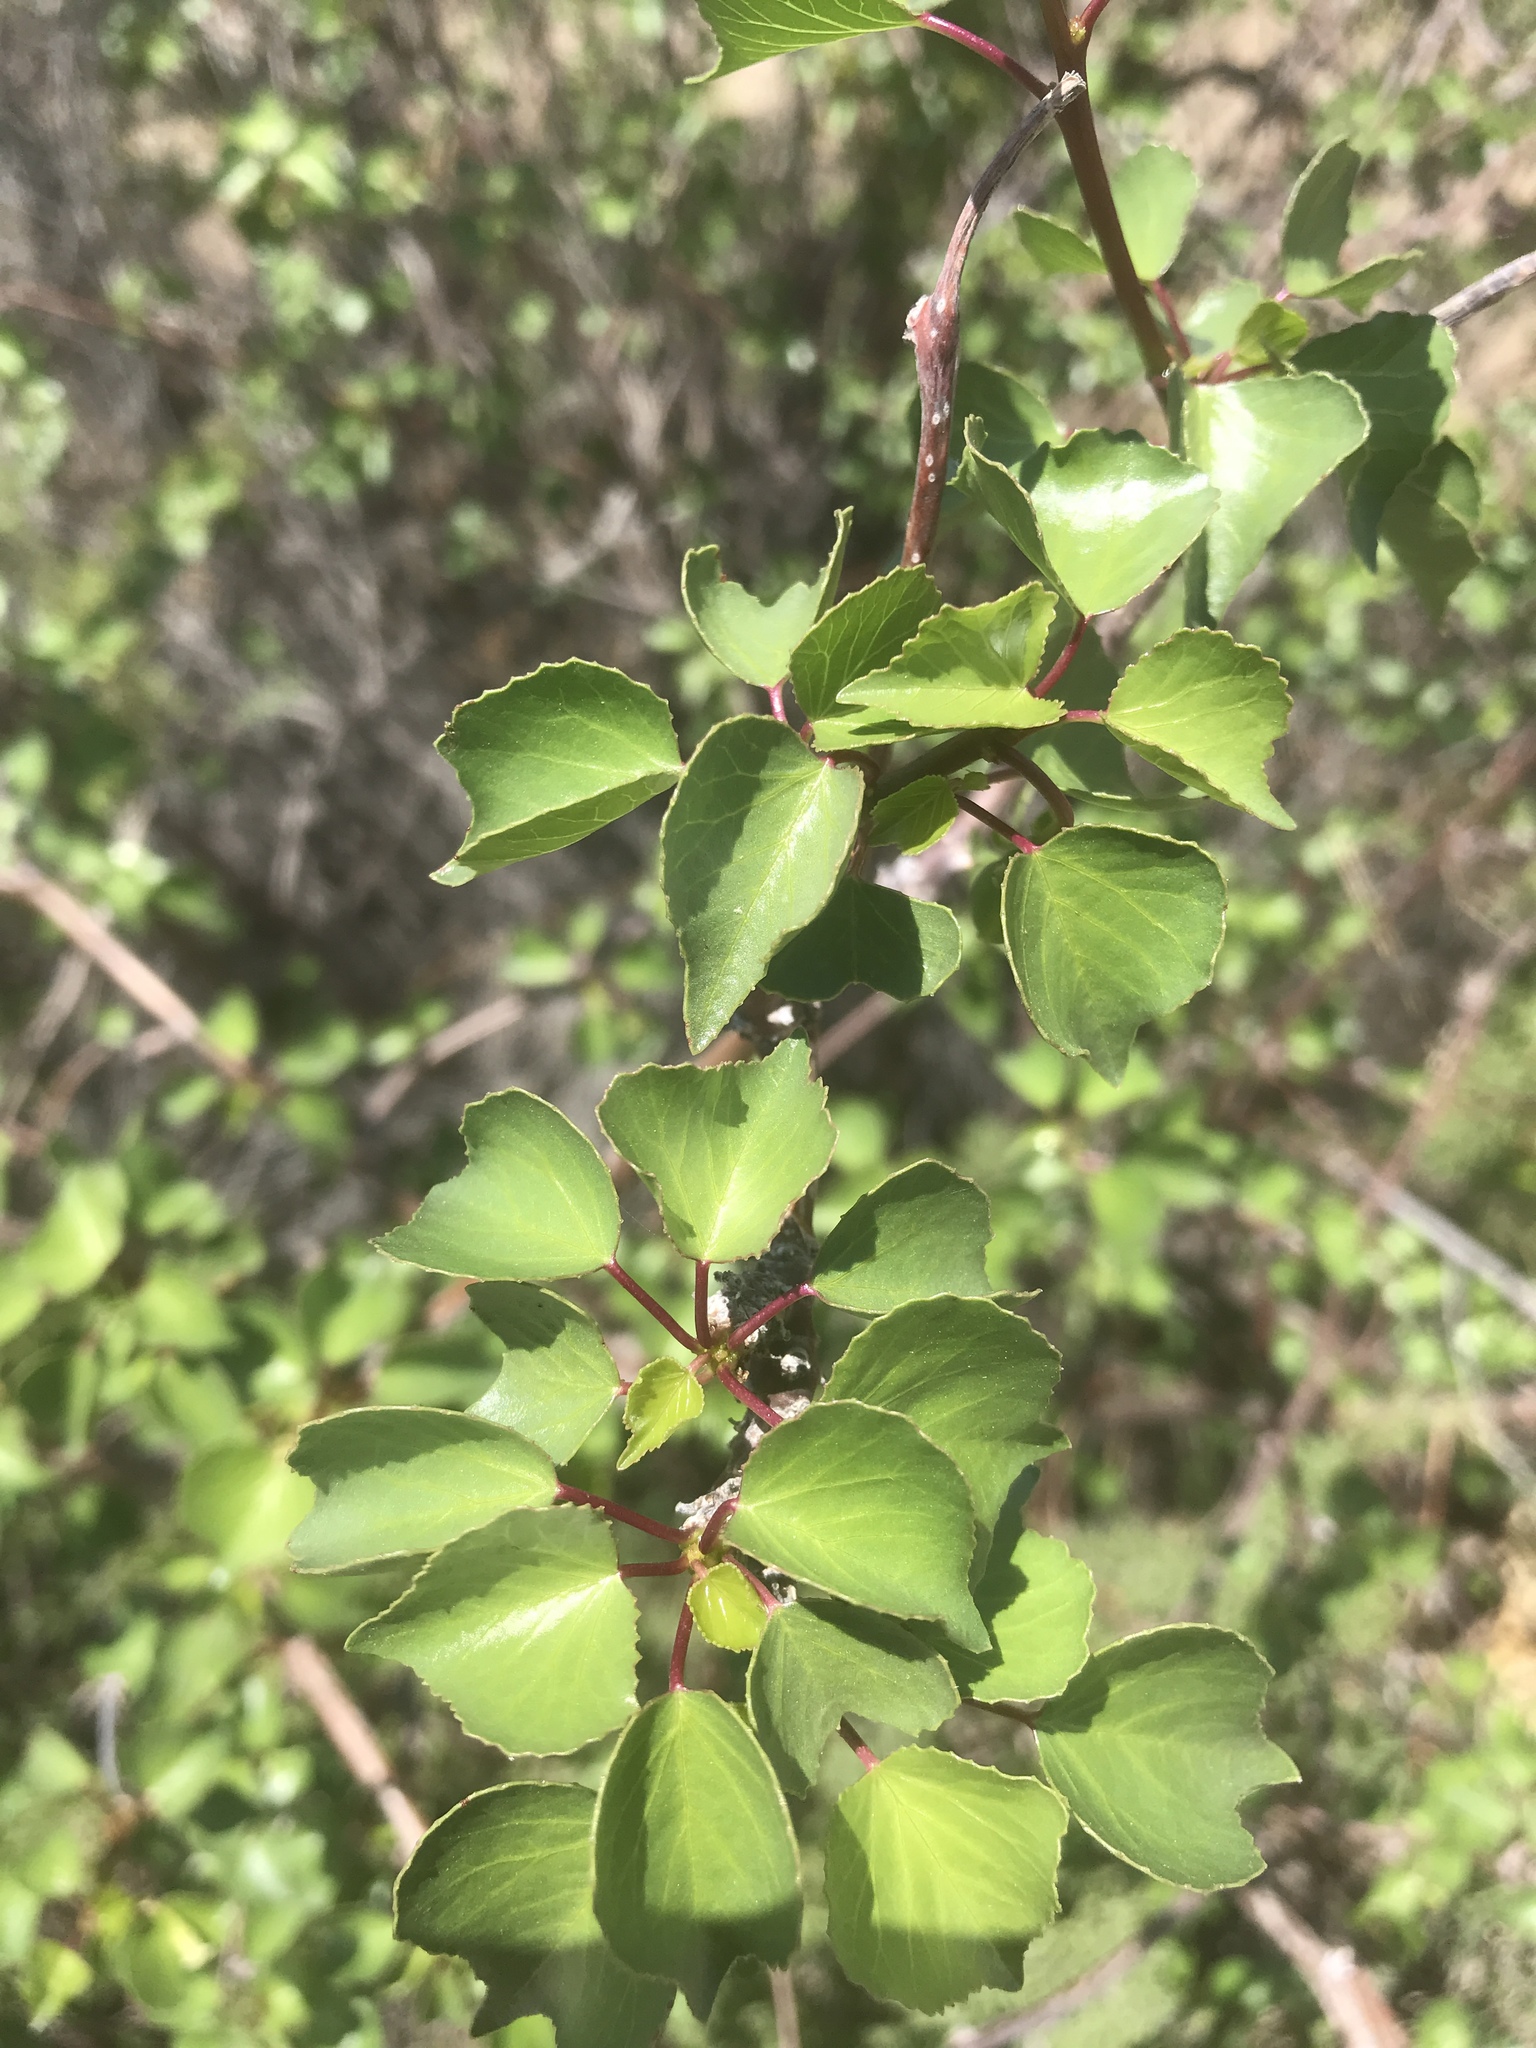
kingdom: Plantae
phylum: Tracheophyta
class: Magnoliopsida
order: Malpighiales
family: Euphorbiaceae
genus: Jatropha
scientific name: Jatropha cardiophylla
